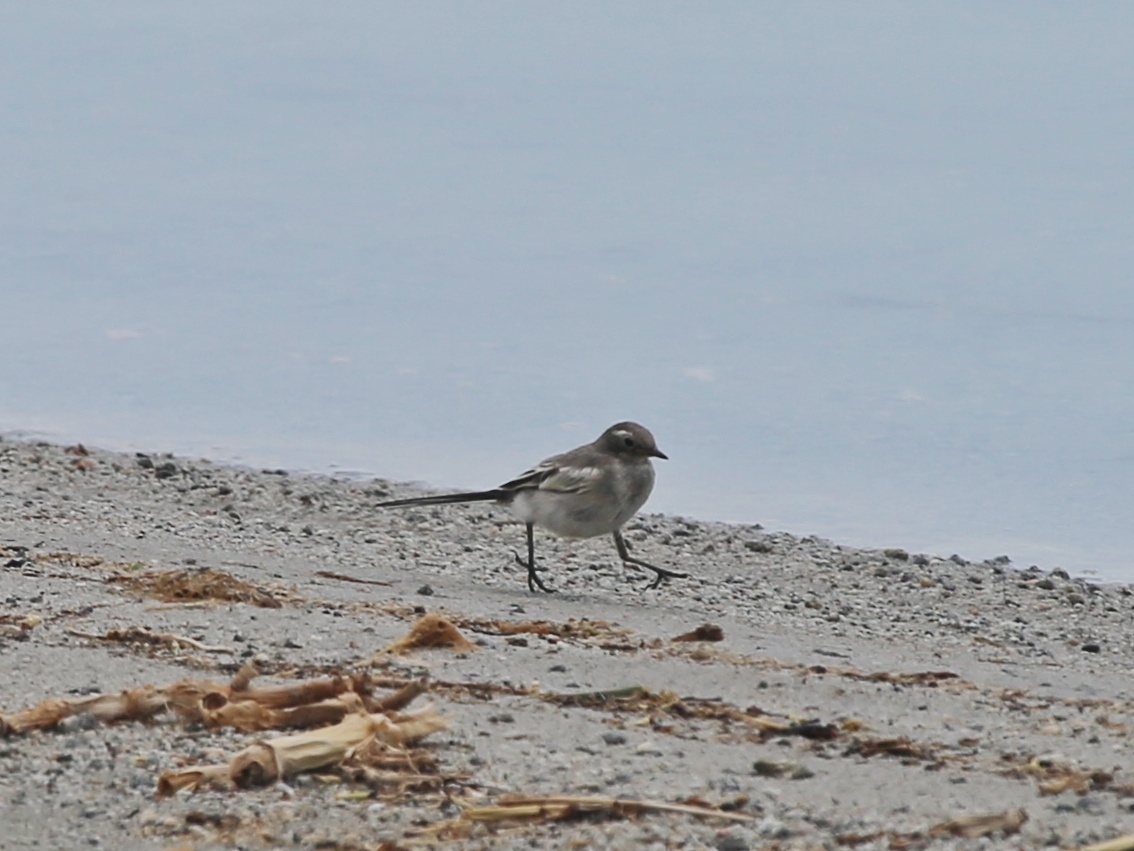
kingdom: Animalia
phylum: Chordata
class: Aves
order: Passeriformes
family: Motacillidae
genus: Motacilla
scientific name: Motacilla alba
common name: White wagtail
